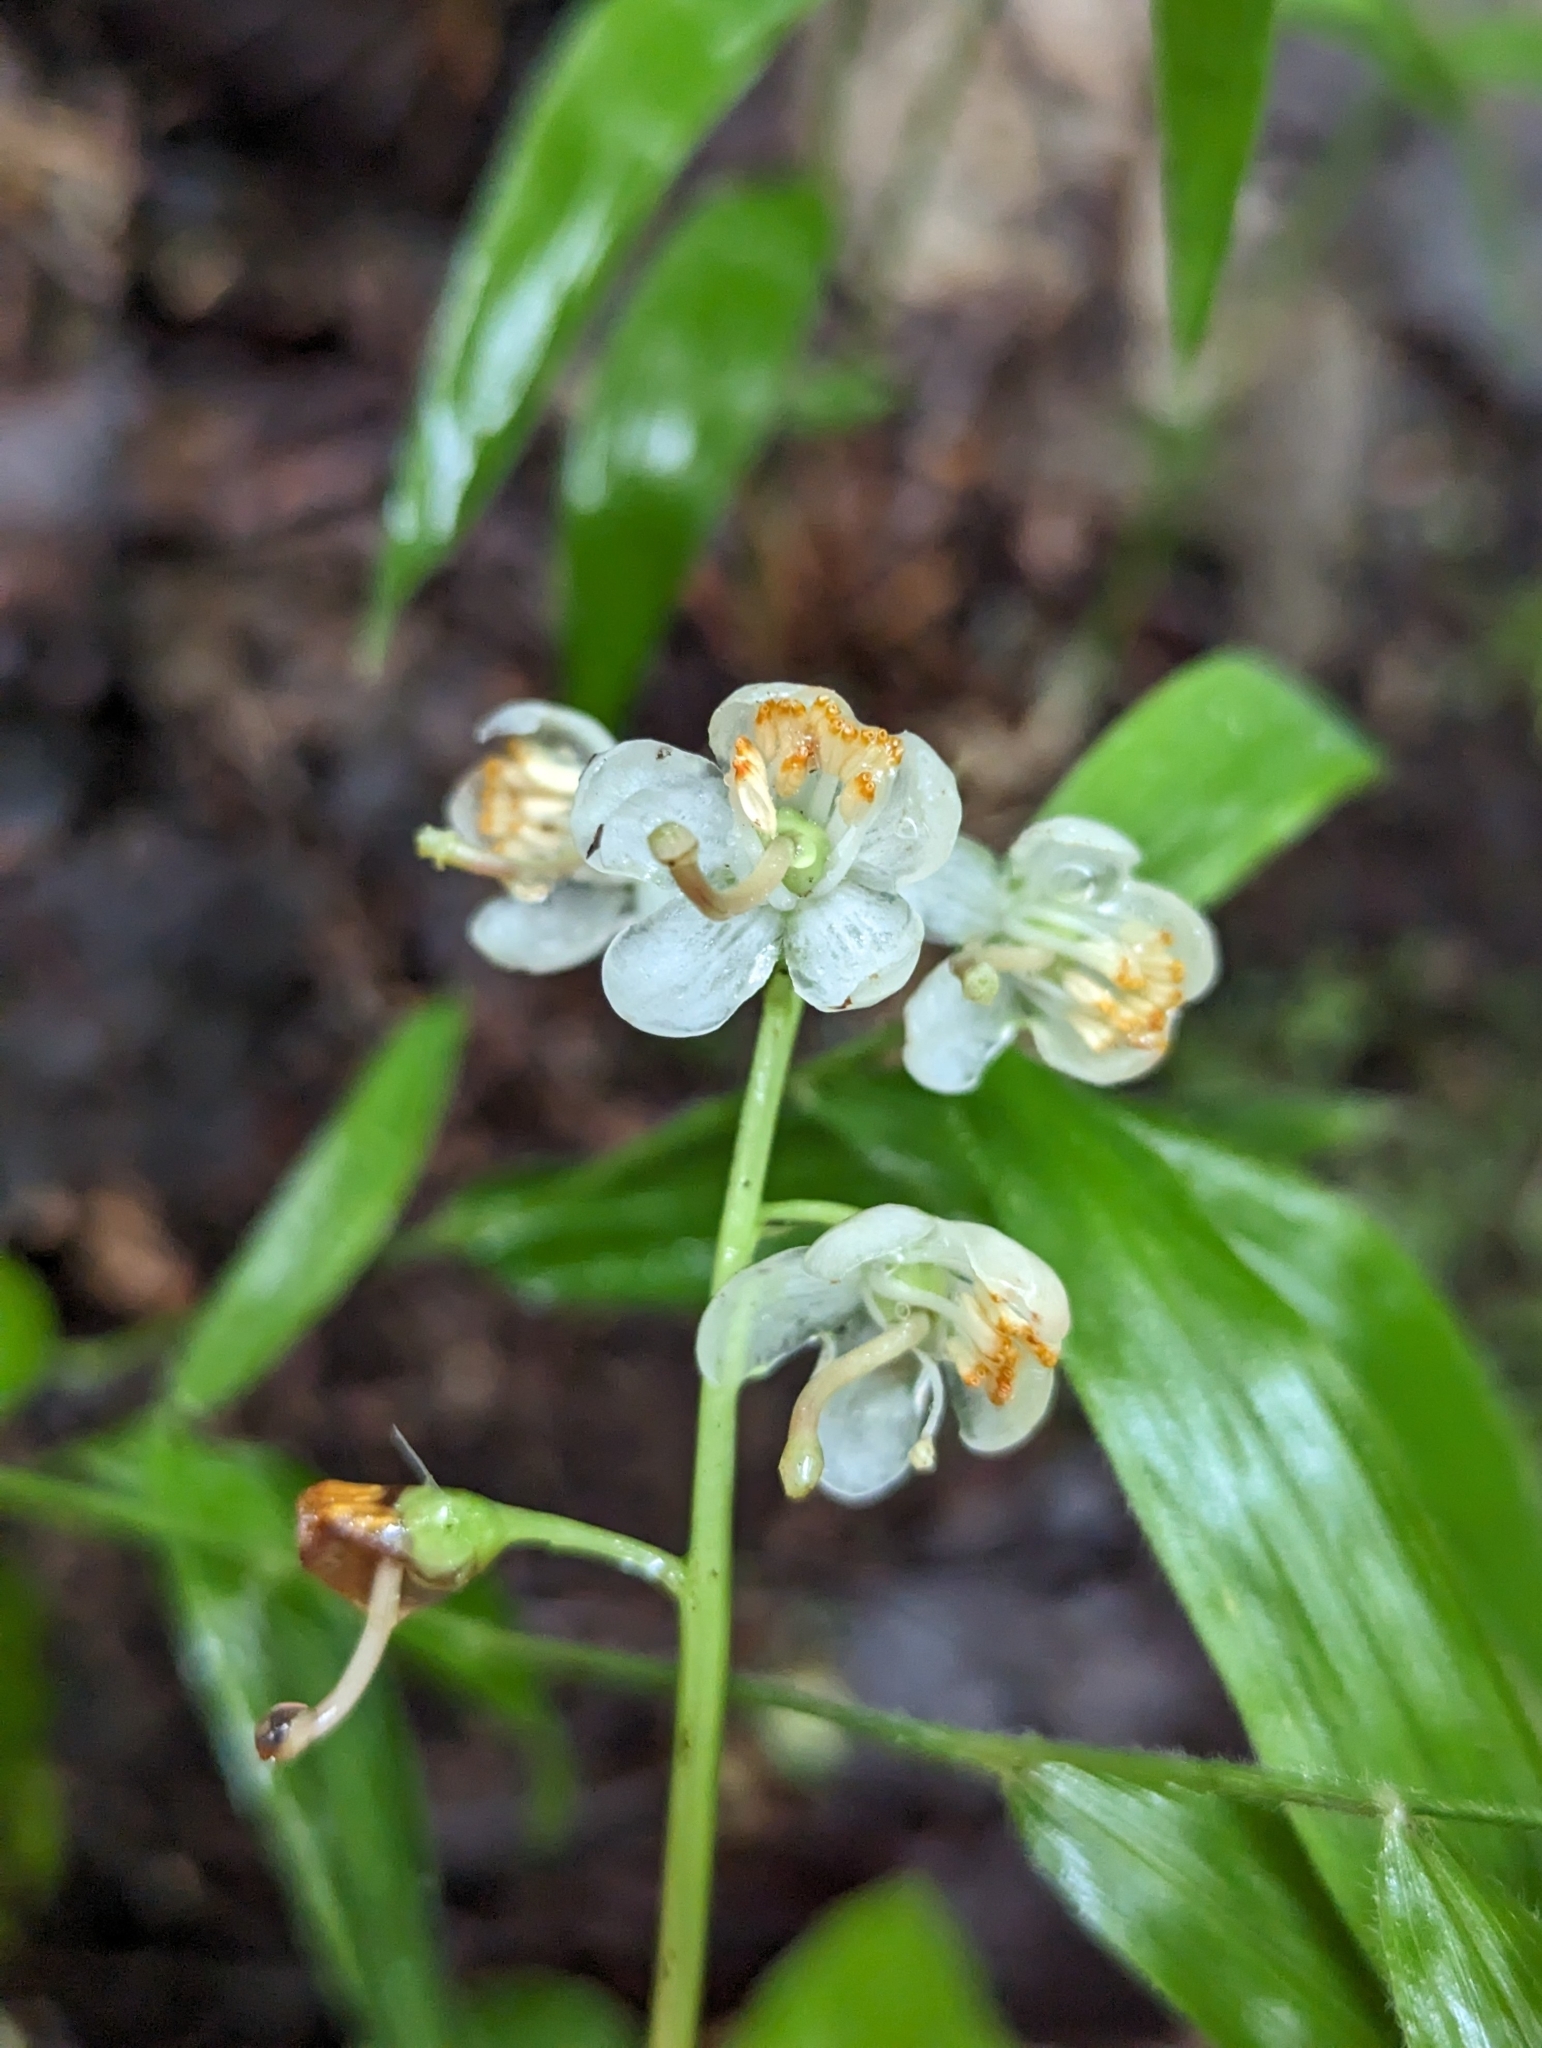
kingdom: Plantae
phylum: Tracheophyta
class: Magnoliopsida
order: Ericales
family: Ericaceae
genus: Pyrola
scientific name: Pyrola elliptica
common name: Shinleaf
